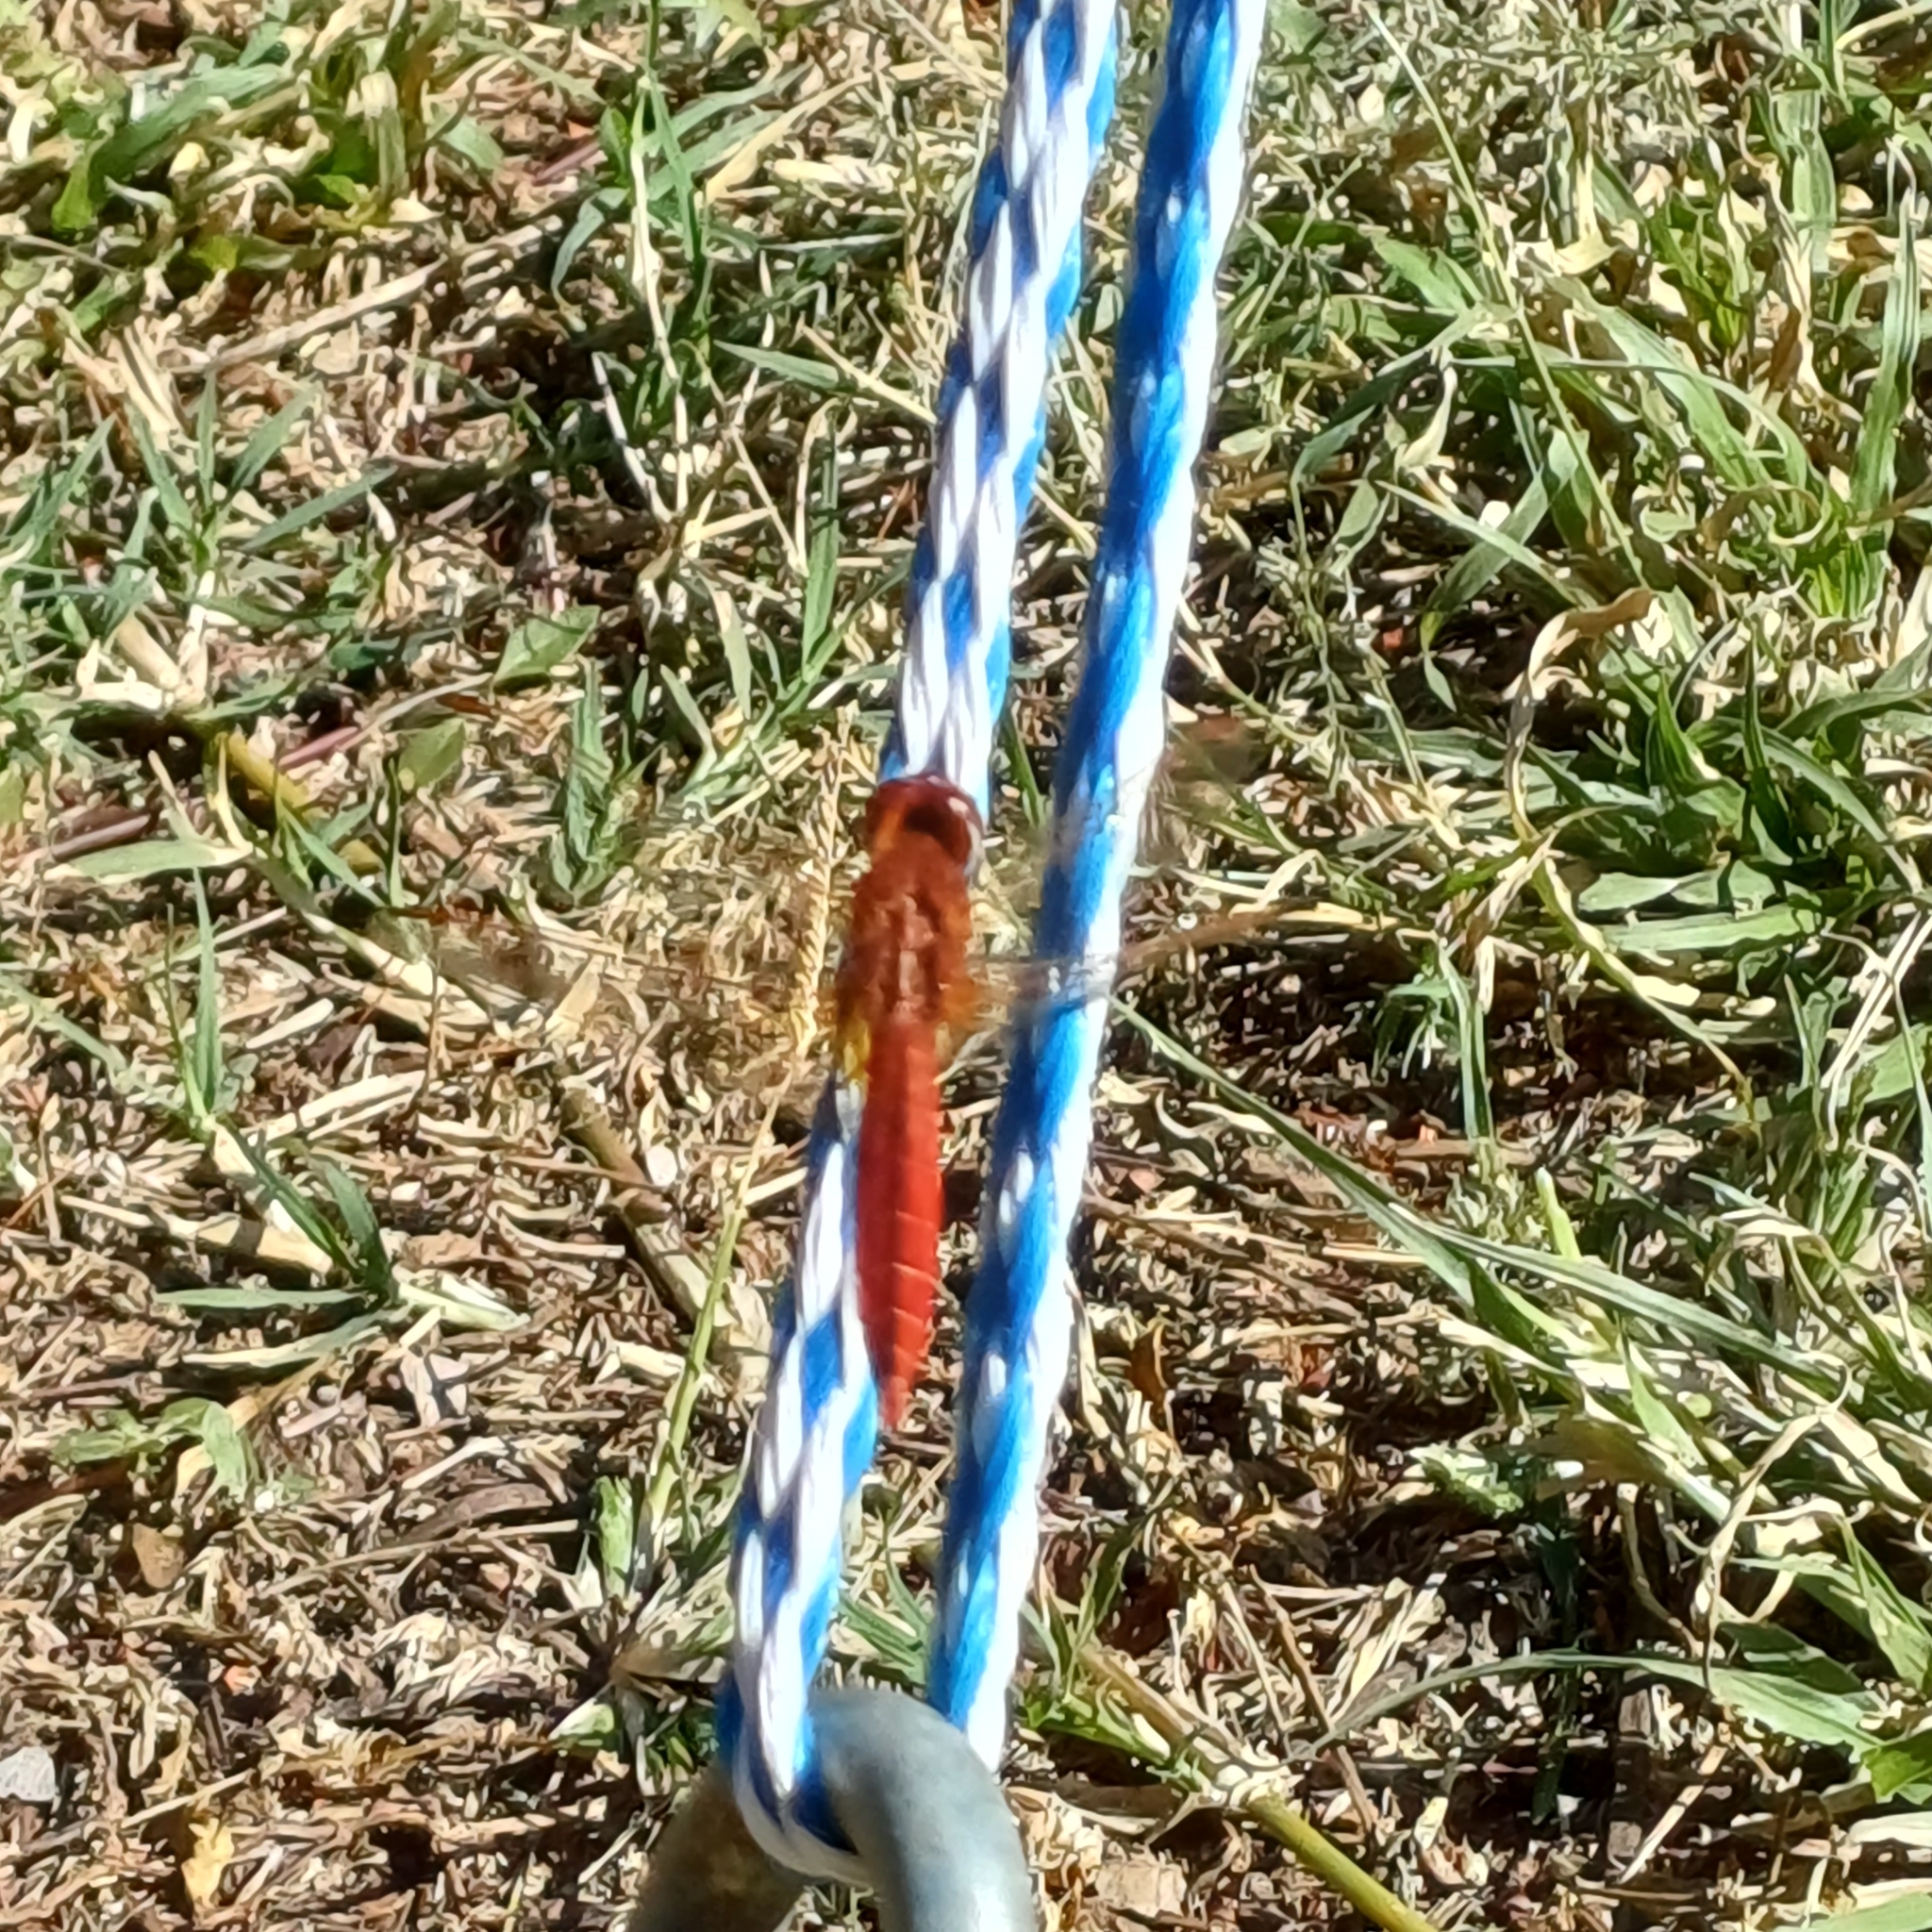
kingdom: Animalia
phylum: Arthropoda
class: Insecta
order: Odonata
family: Libellulidae
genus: Crocothemis
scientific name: Crocothemis erythraea
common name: Scarlet dragonfly
